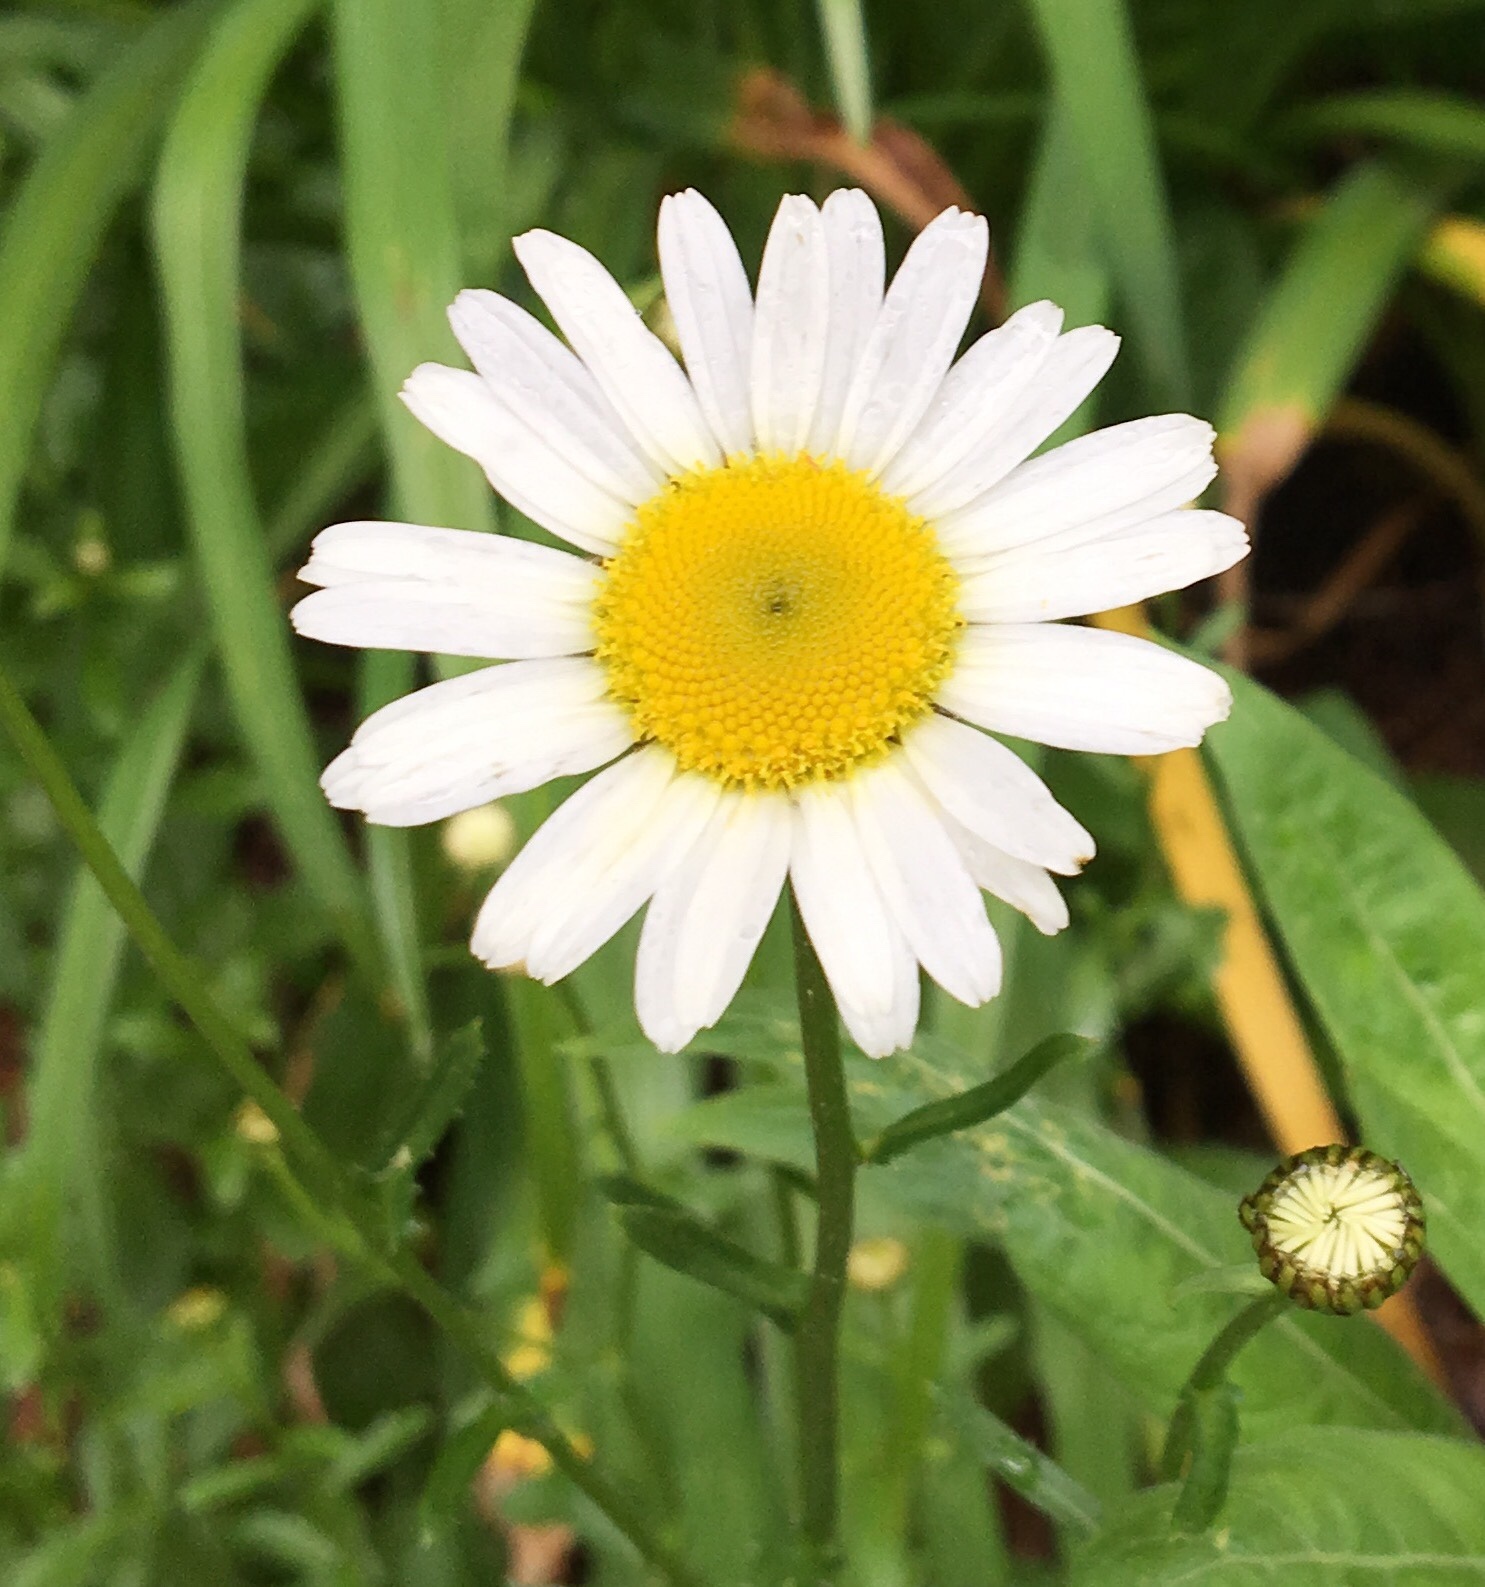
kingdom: Plantae
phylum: Tracheophyta
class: Magnoliopsida
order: Asterales
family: Asteraceae
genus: Leucanthemum
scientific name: Leucanthemum vulgare
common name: Oxeye daisy
